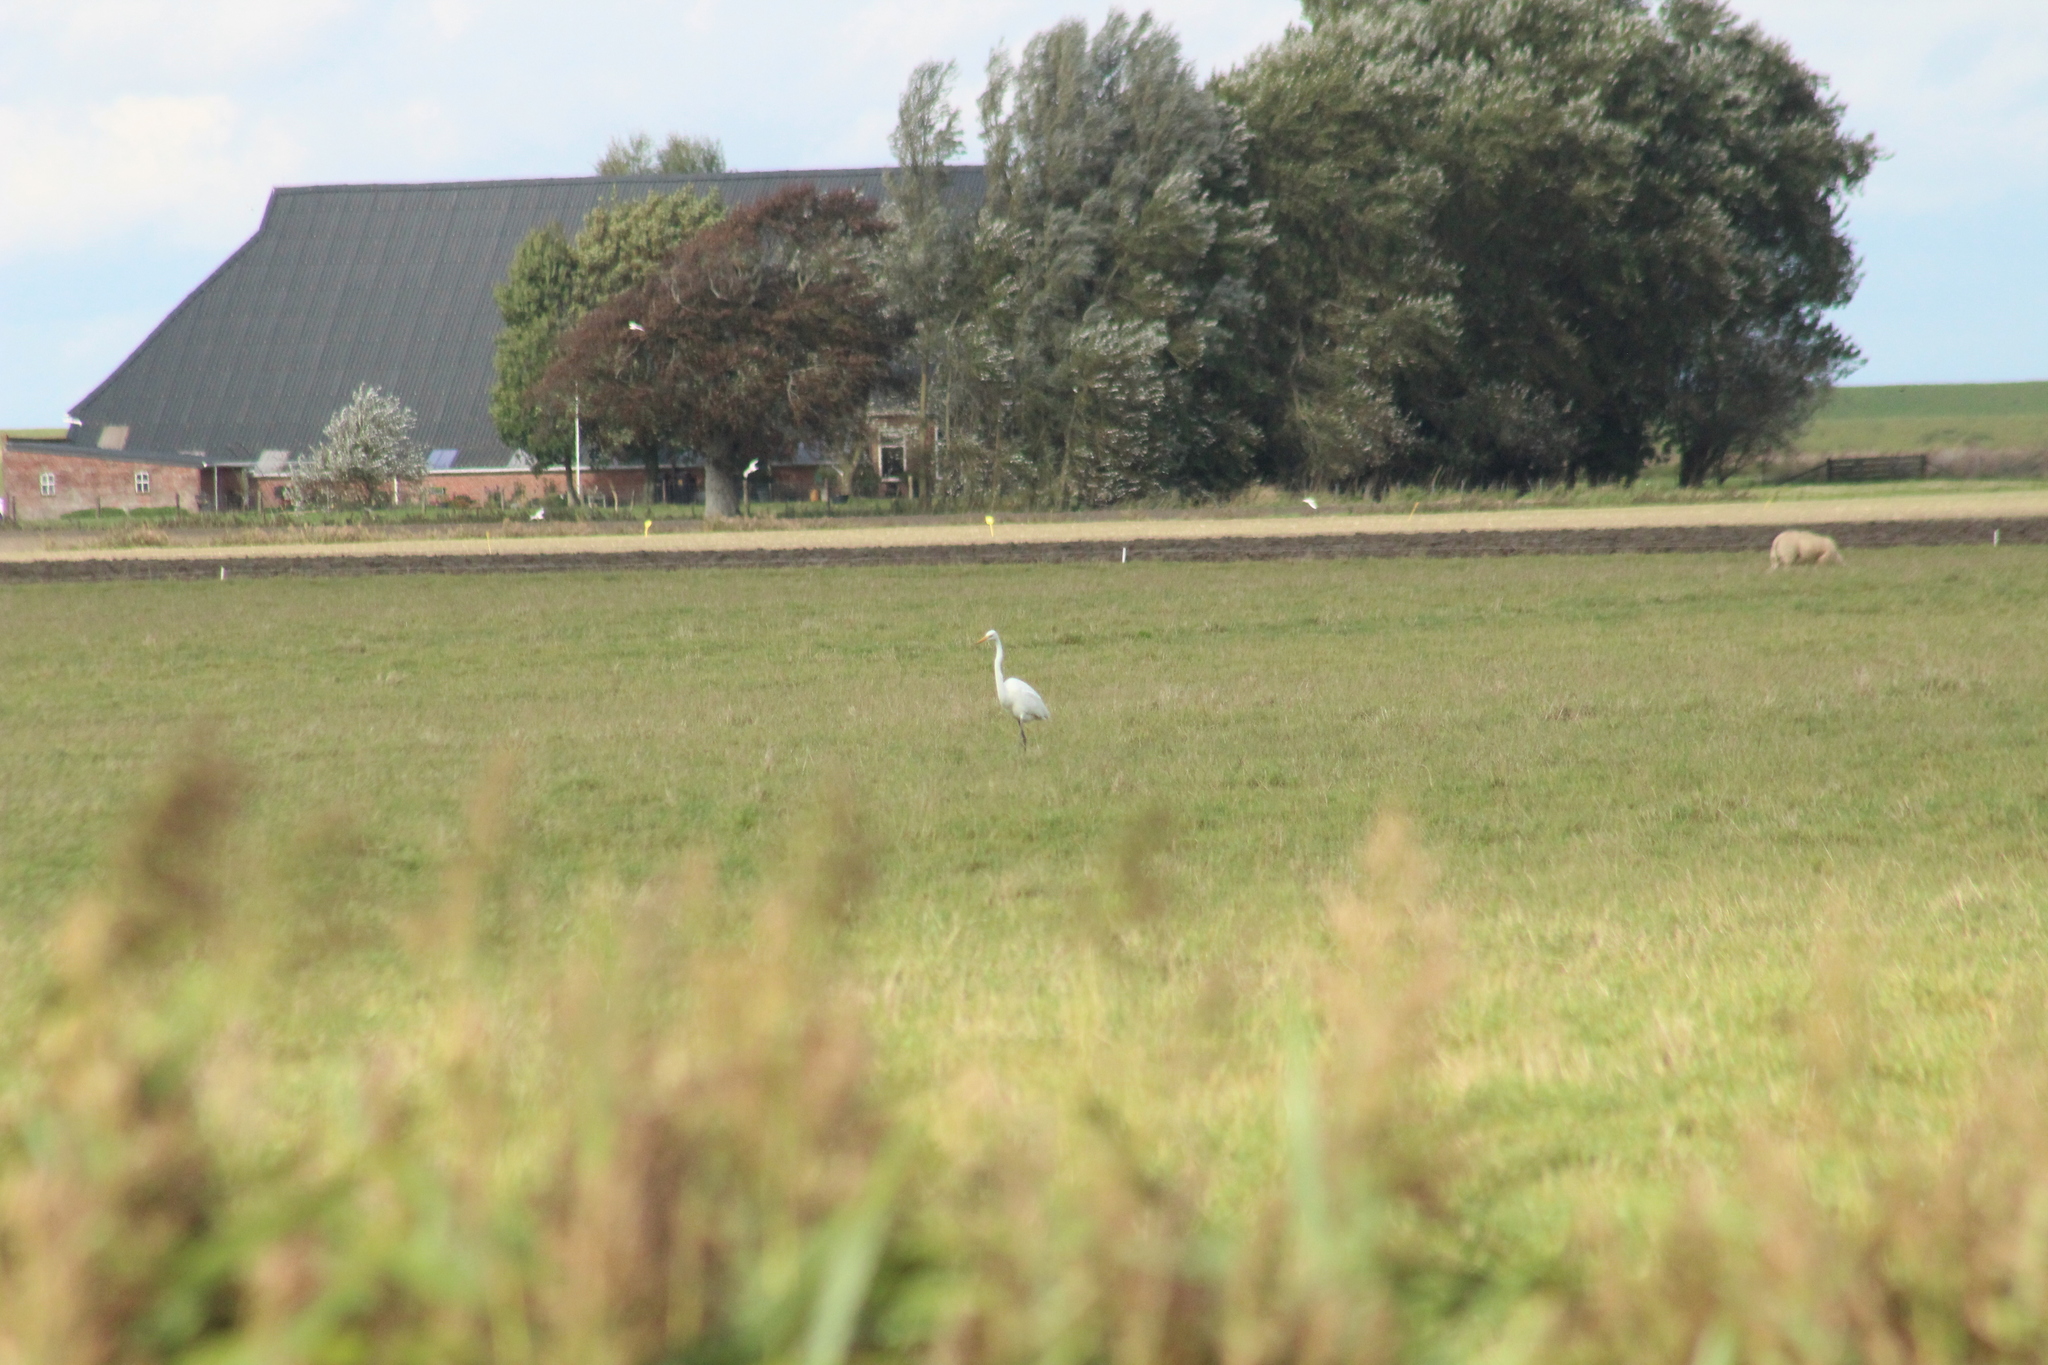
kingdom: Animalia
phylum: Chordata
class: Aves
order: Pelecaniformes
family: Ardeidae
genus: Ardea
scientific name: Ardea alba
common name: Great egret
